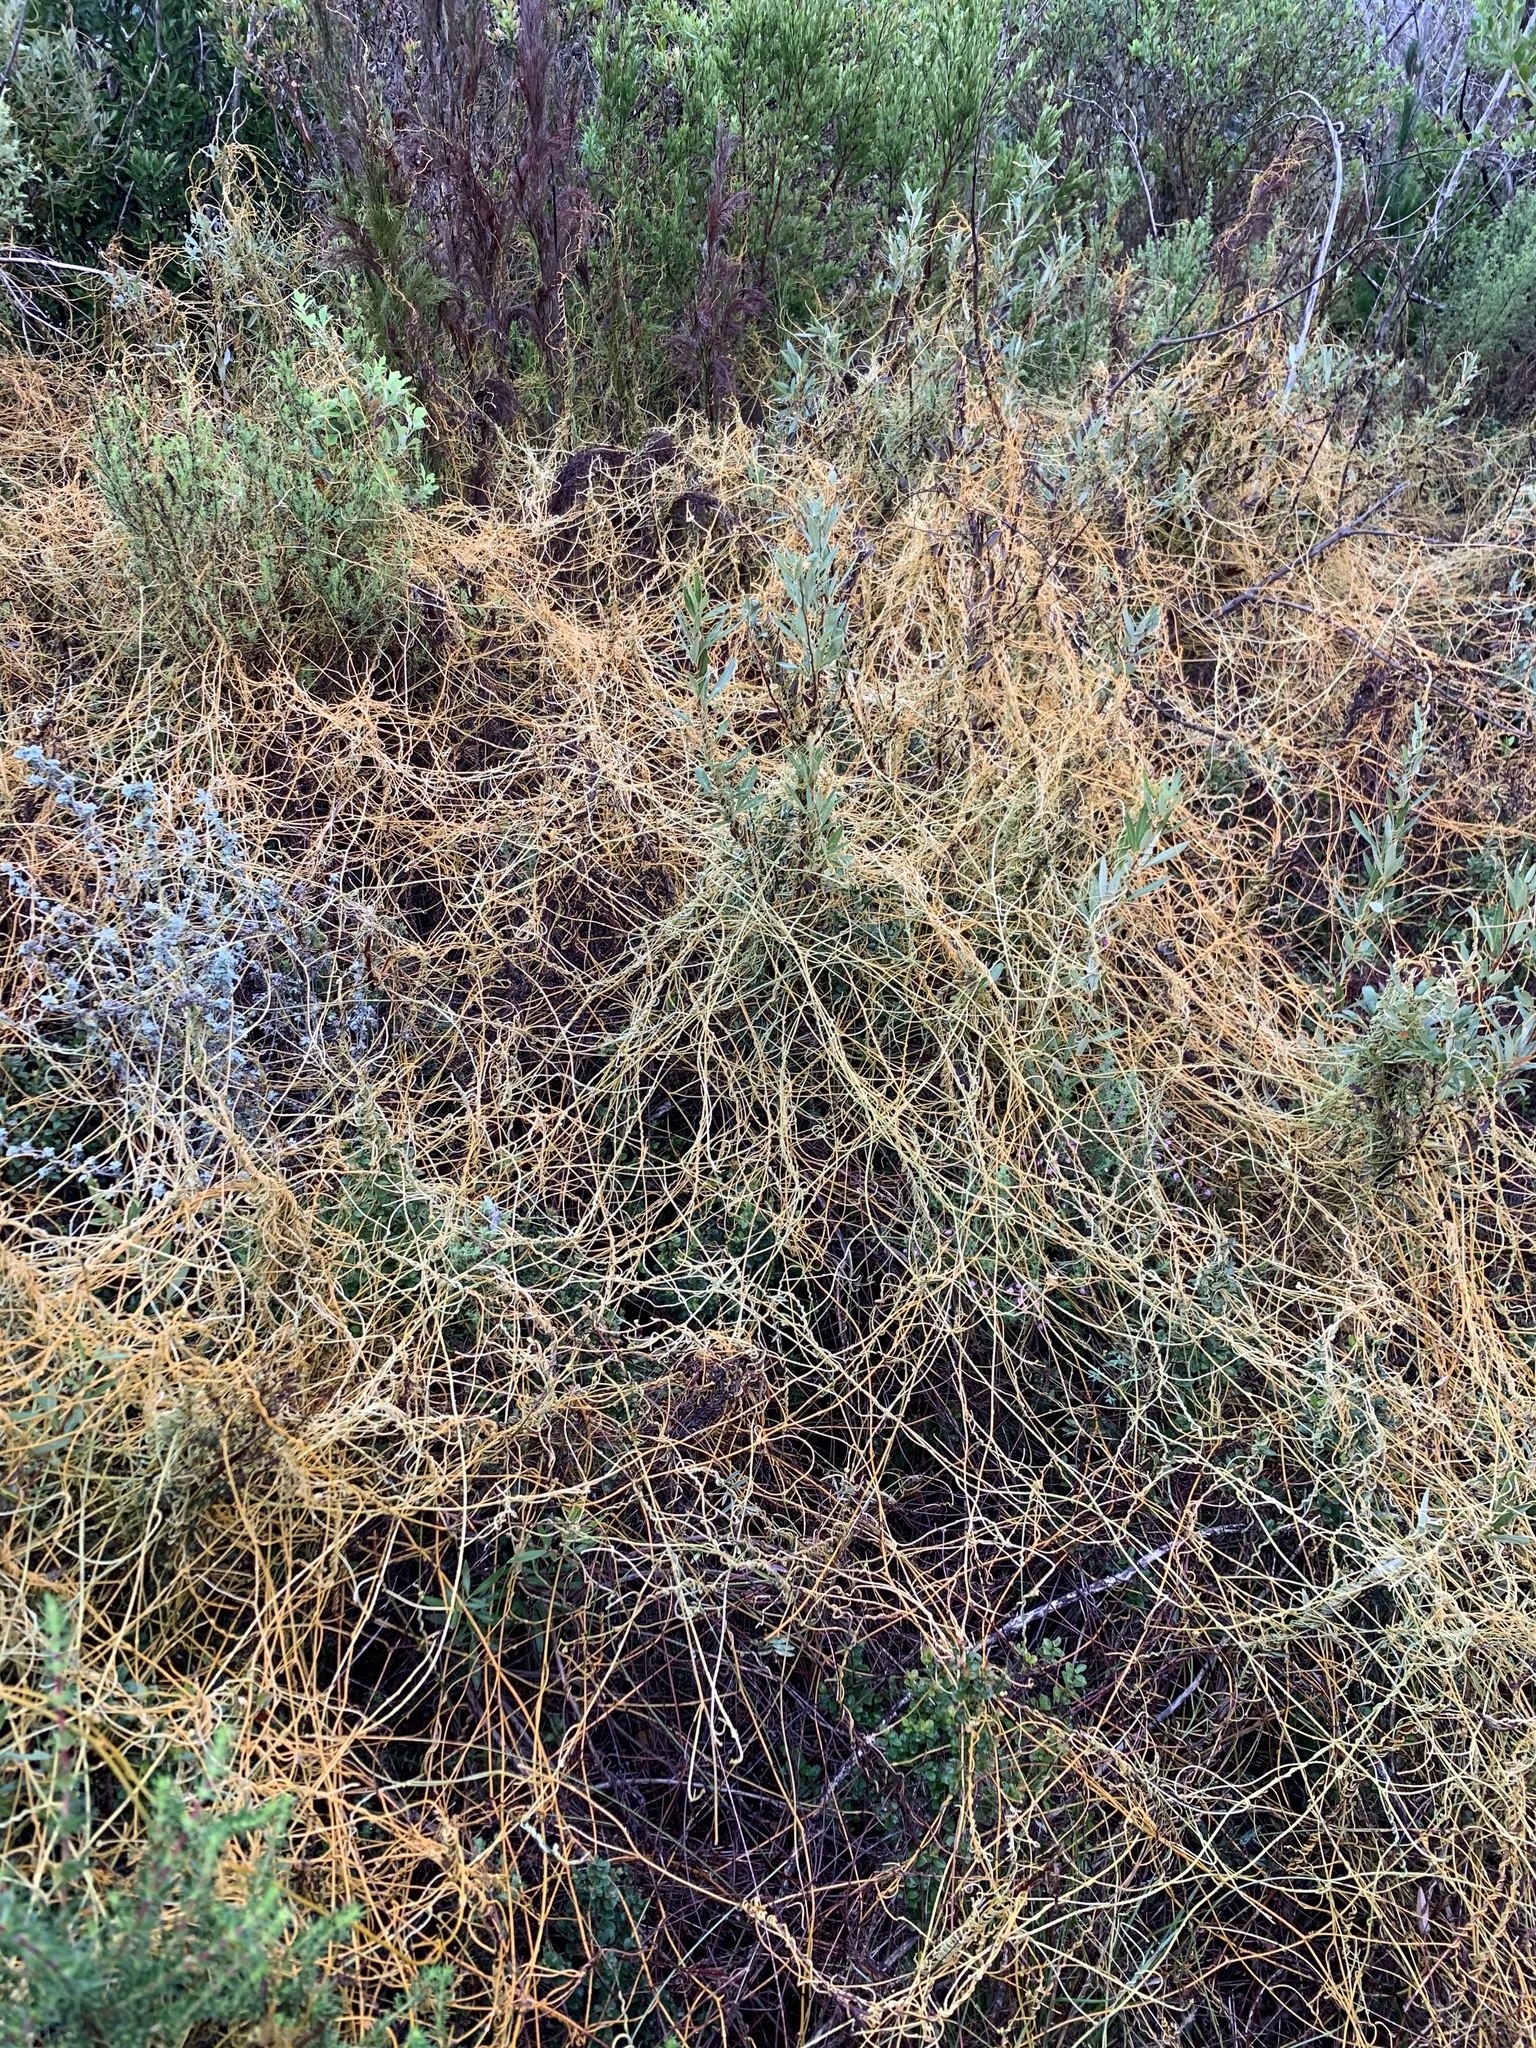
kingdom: Plantae
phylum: Tracheophyta
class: Magnoliopsida
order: Laurales
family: Lauraceae
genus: Cassytha
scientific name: Cassytha ciliolata
